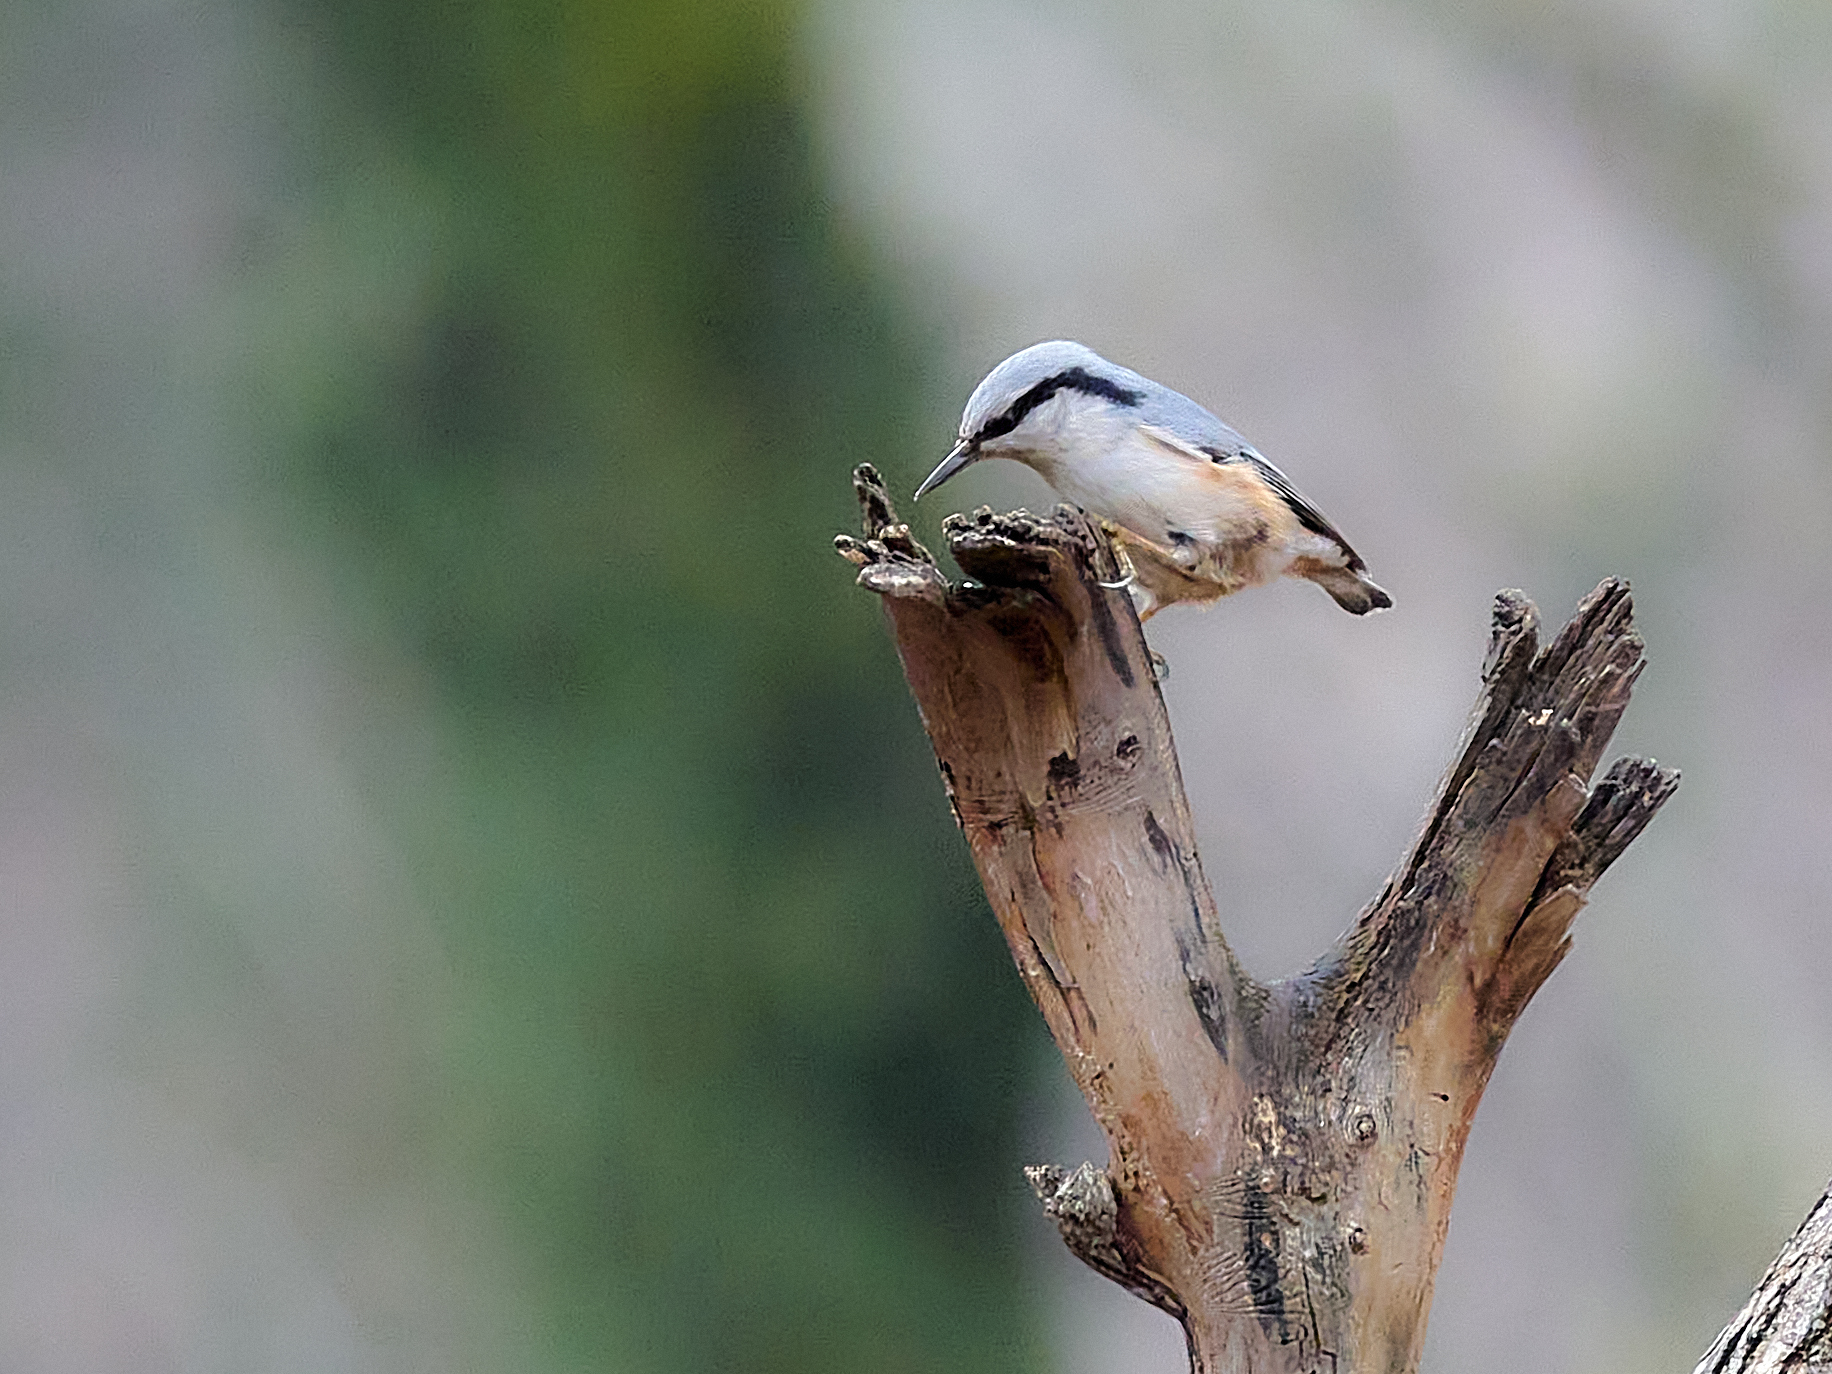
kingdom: Animalia
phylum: Chordata
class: Aves
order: Passeriformes
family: Sittidae
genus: Sitta
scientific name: Sitta europaea
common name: Eurasian nuthatch
